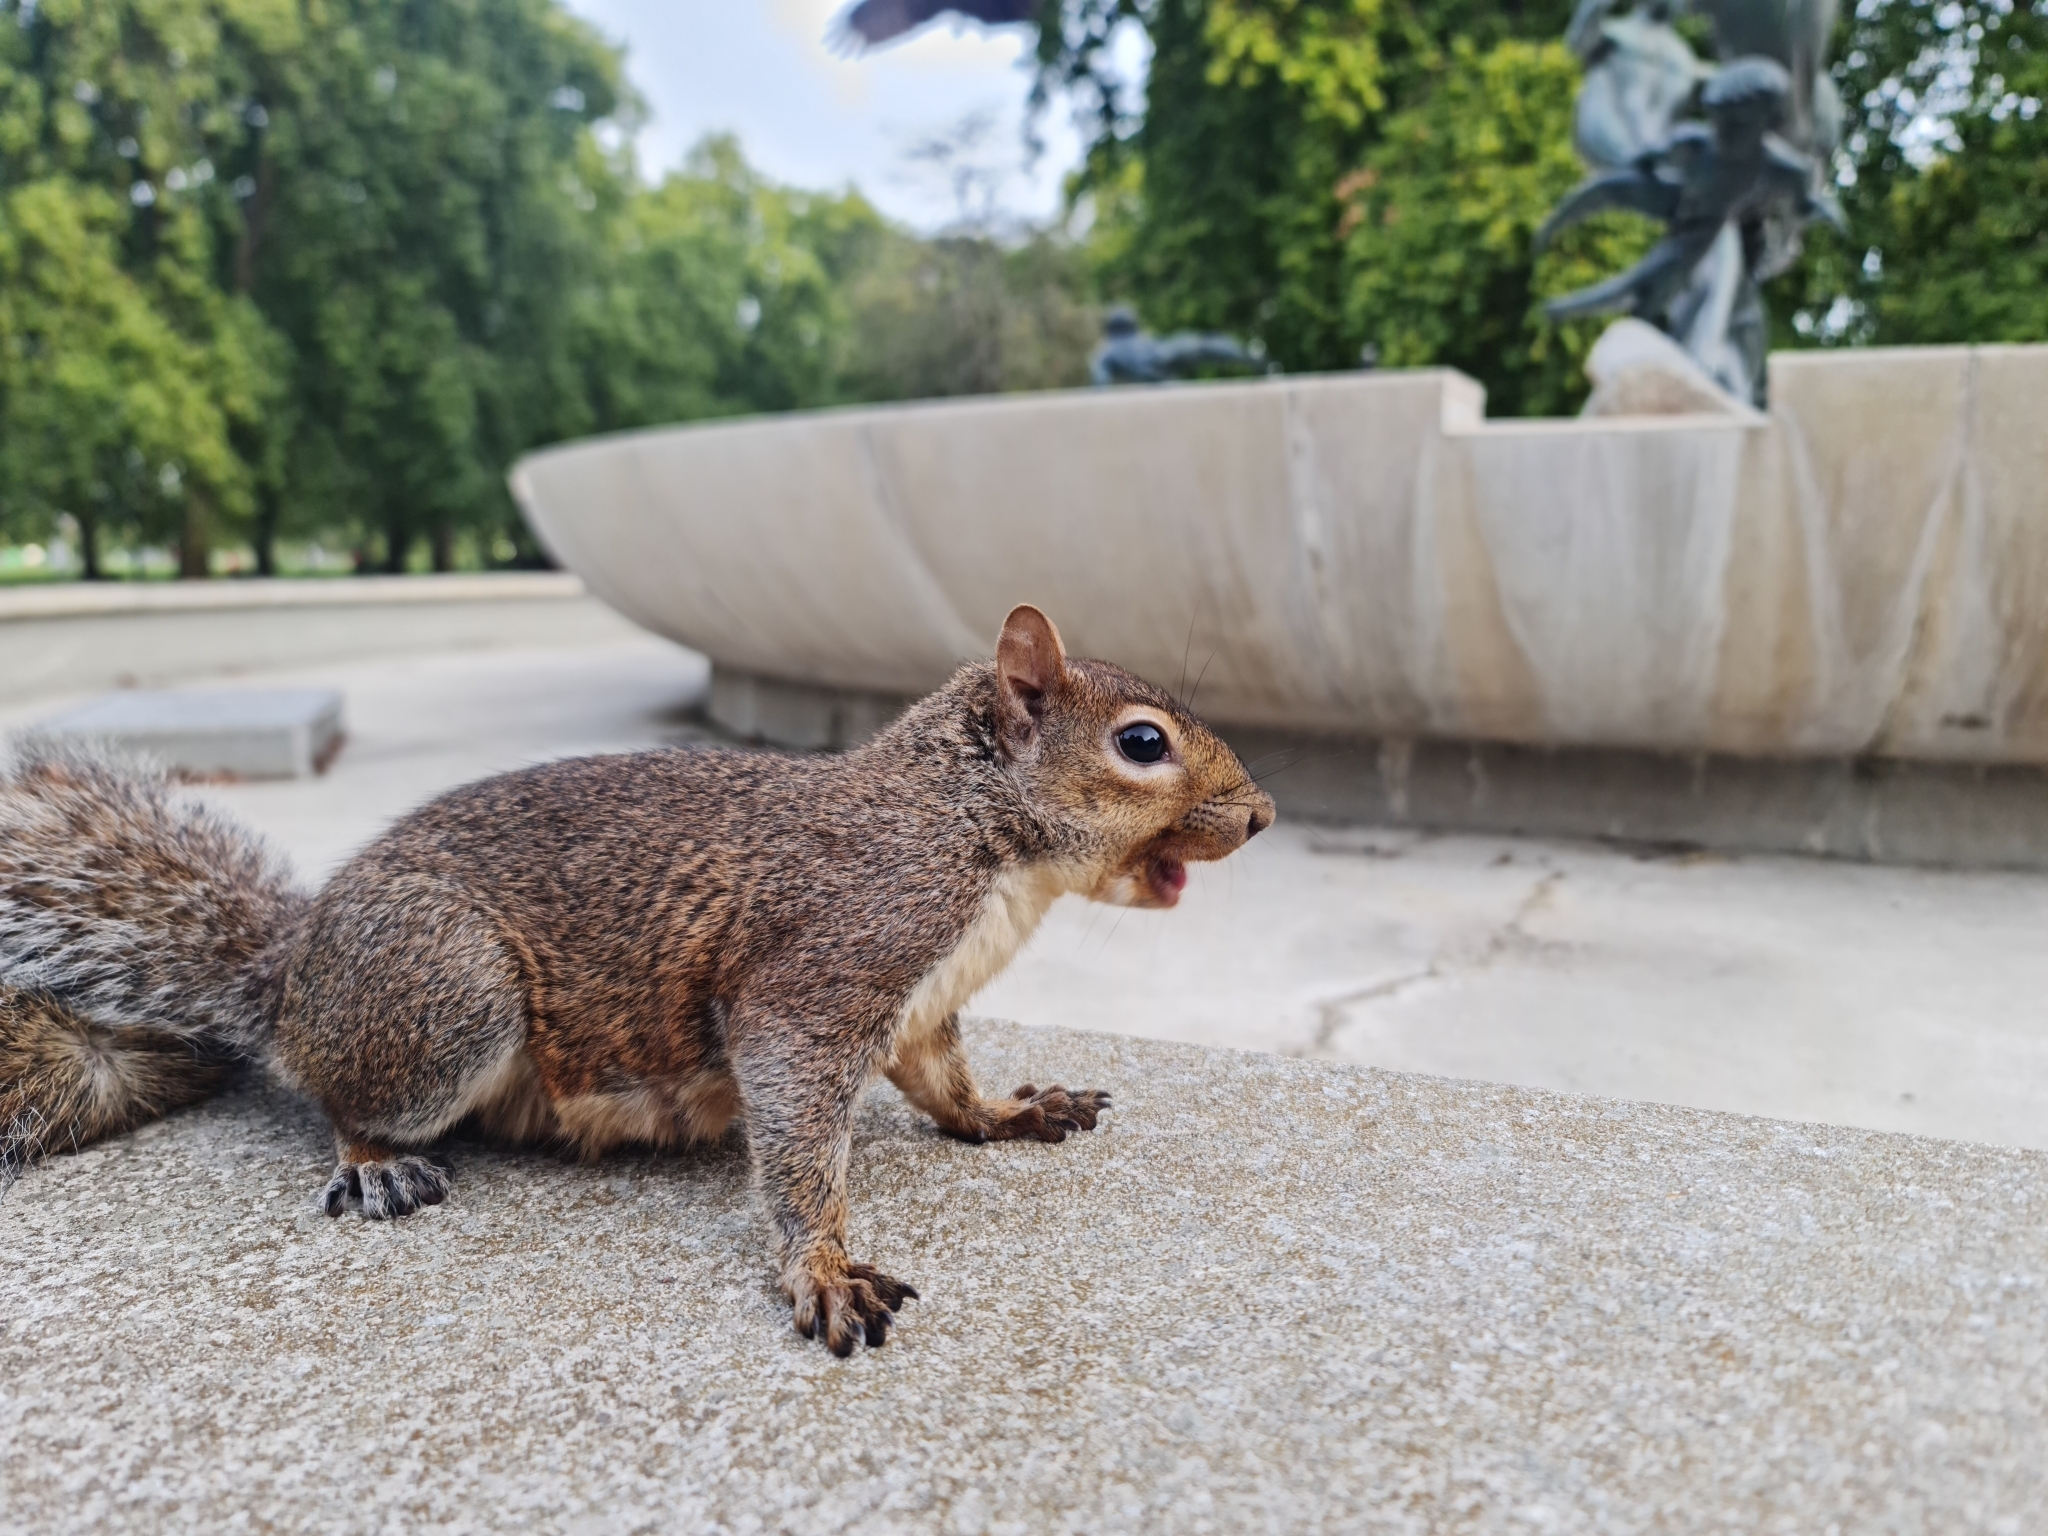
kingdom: Animalia
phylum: Chordata
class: Mammalia
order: Rodentia
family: Sciuridae
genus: Sciurus
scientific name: Sciurus carolinensis
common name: Eastern gray squirrel
